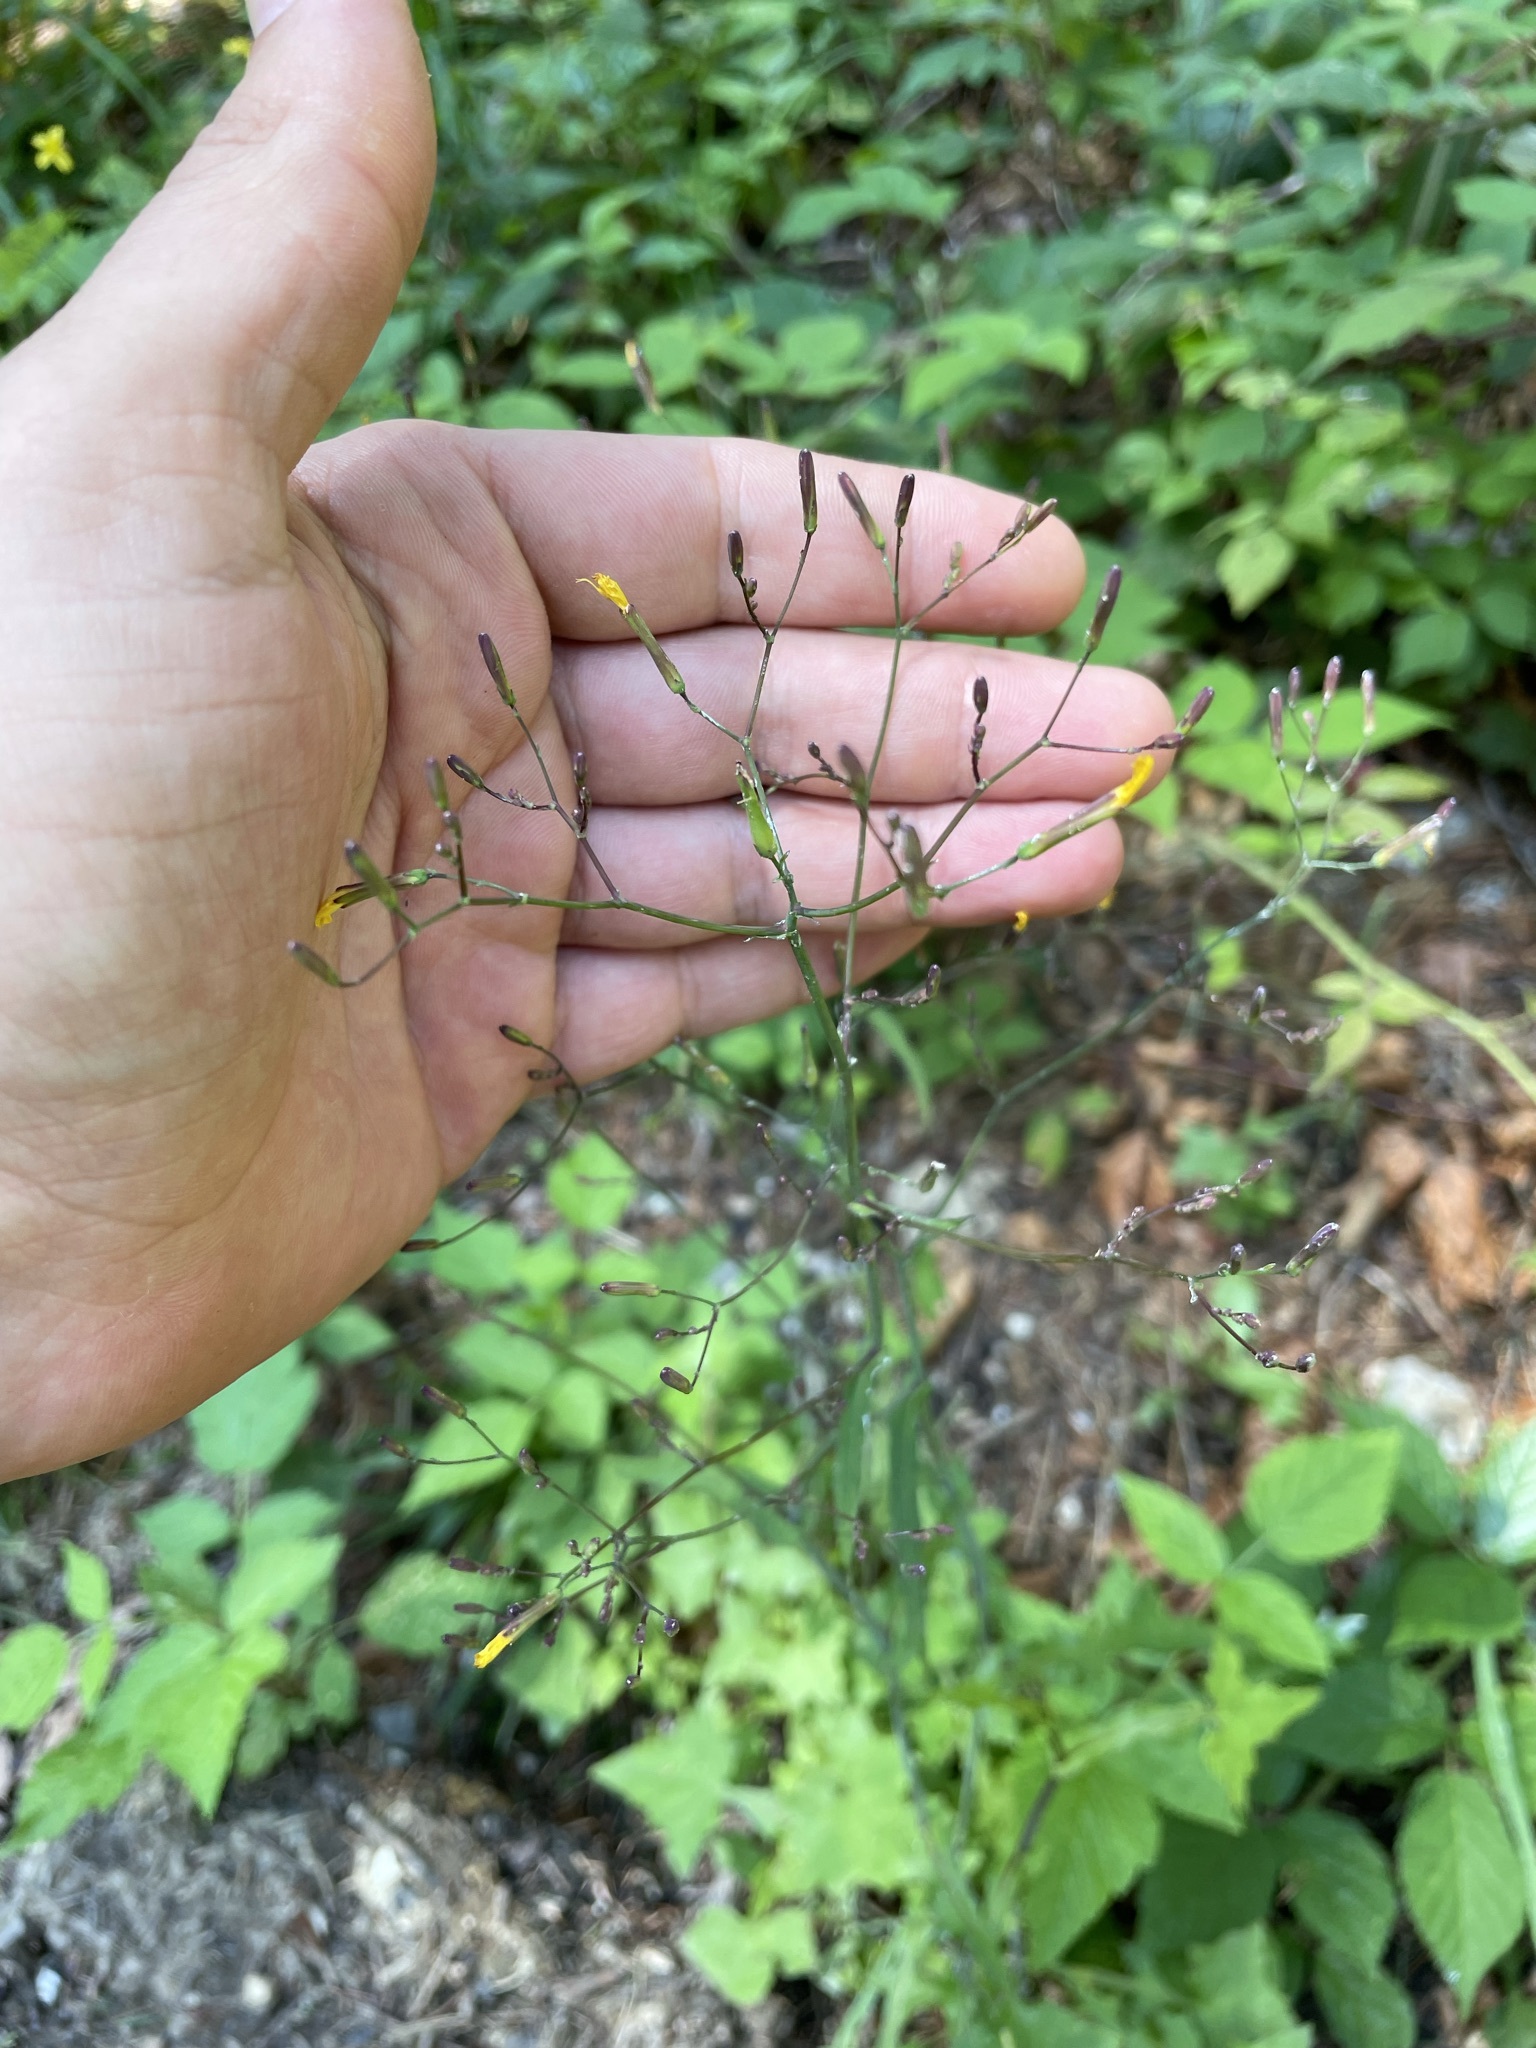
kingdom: Plantae
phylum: Tracheophyta
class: Magnoliopsida
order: Asterales
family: Asteraceae
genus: Mycelis
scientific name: Mycelis muralis
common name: Wall lettuce
